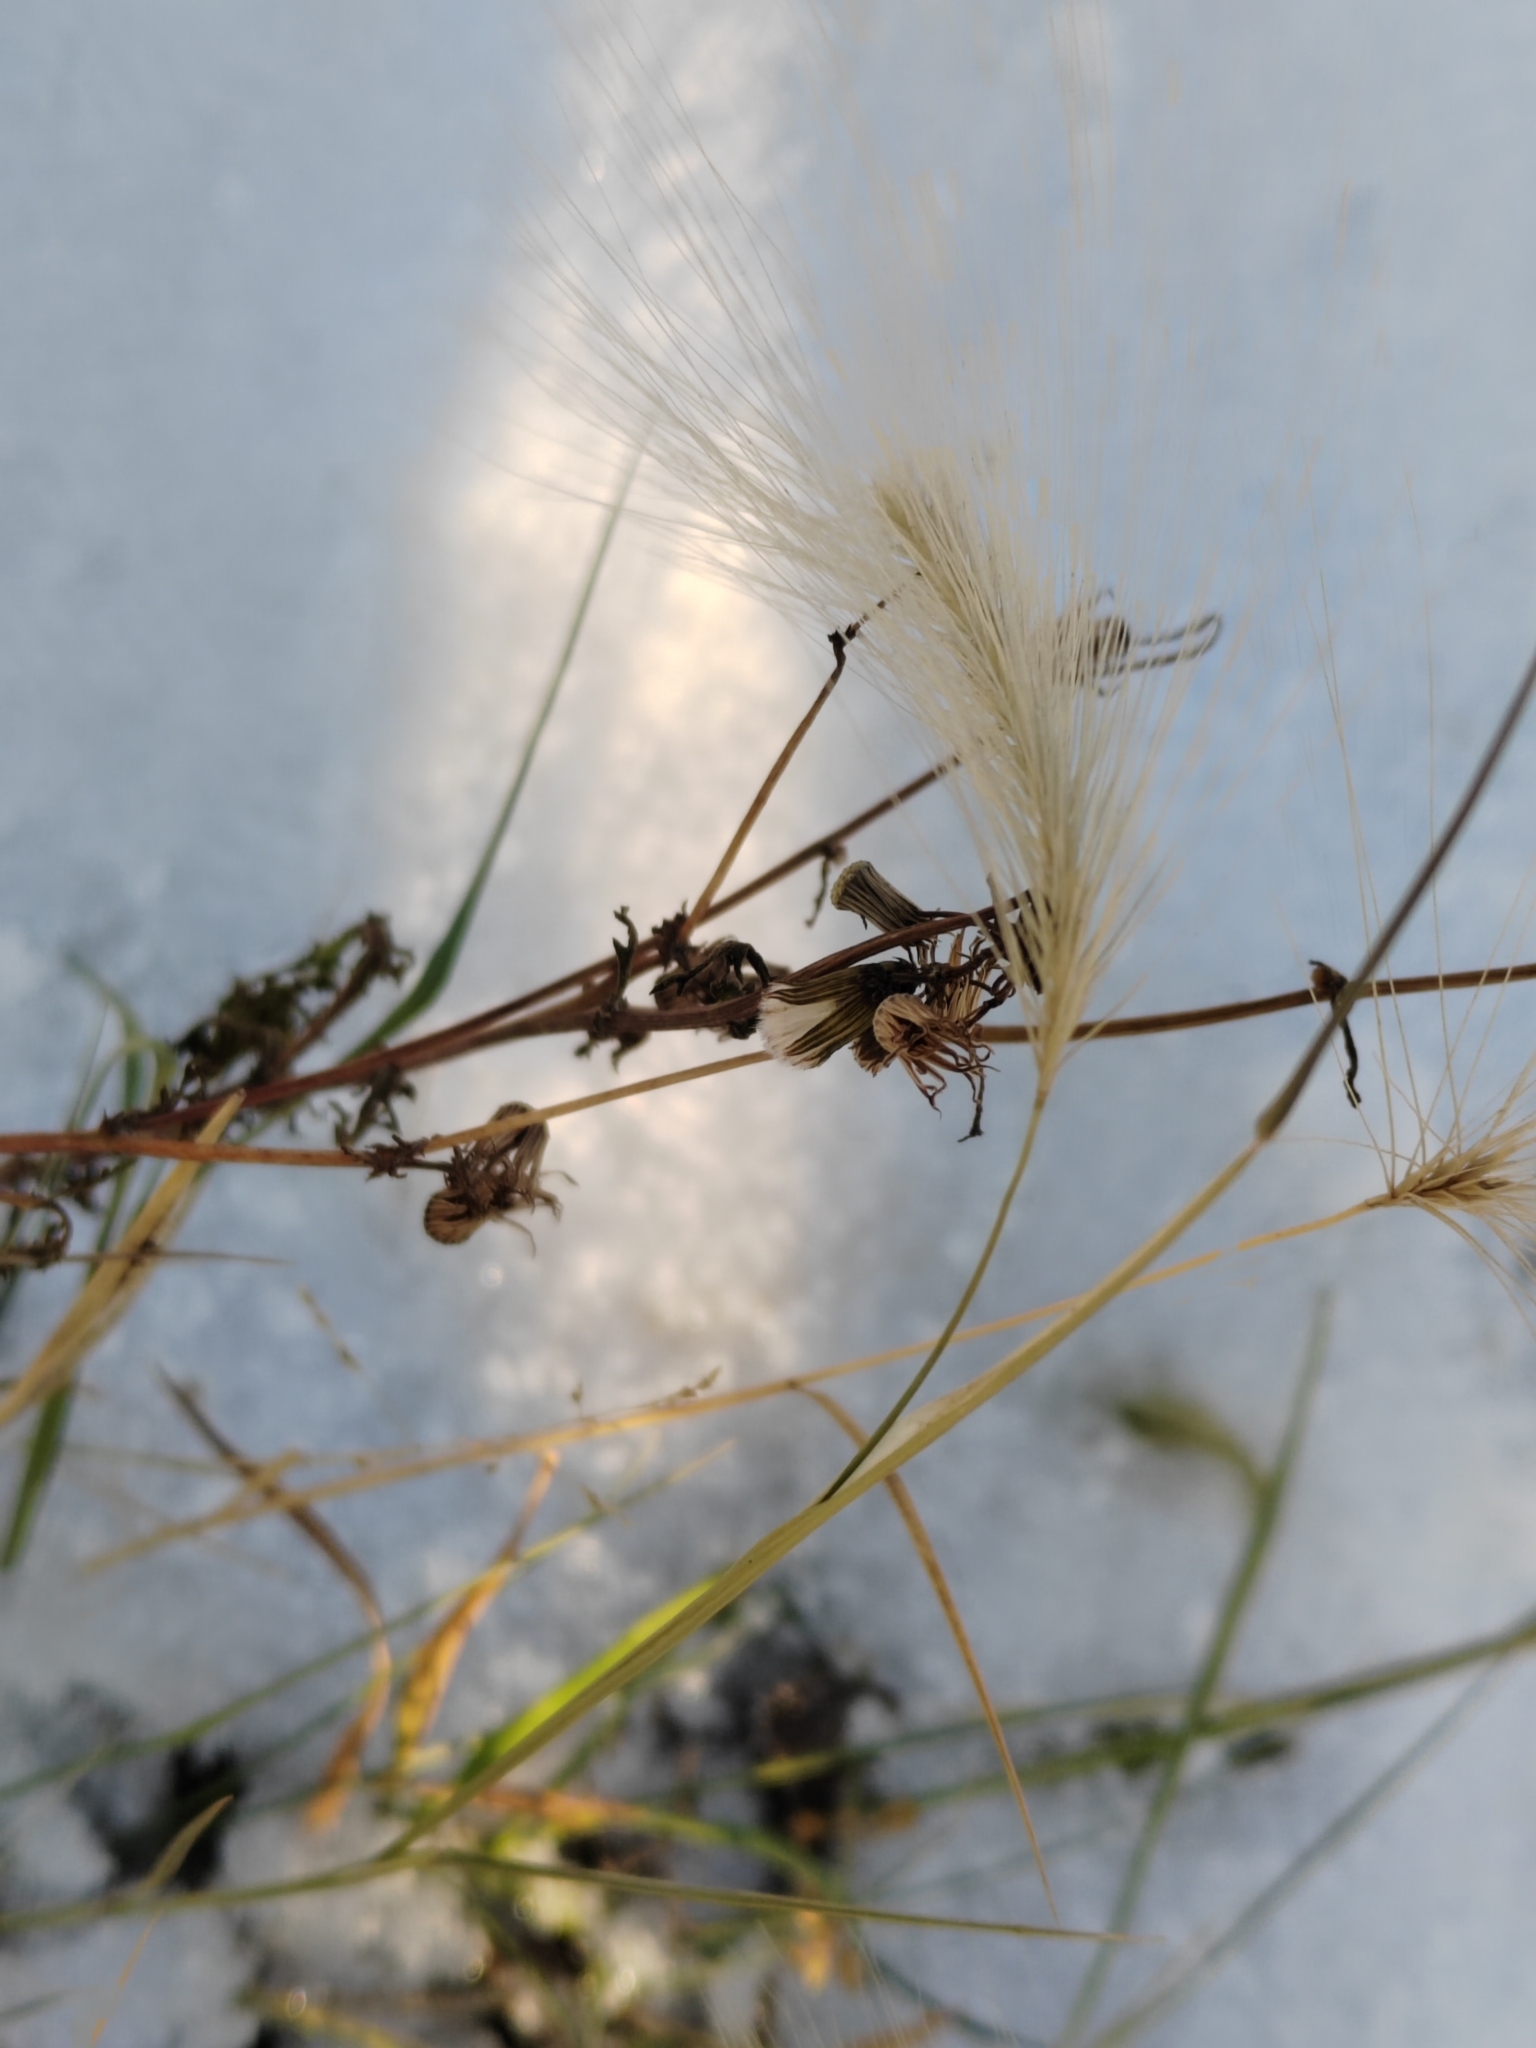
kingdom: Plantae
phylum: Tracheophyta
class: Liliopsida
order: Poales
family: Poaceae
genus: Hordeum
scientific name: Hordeum jubatum
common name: Foxtail barley
